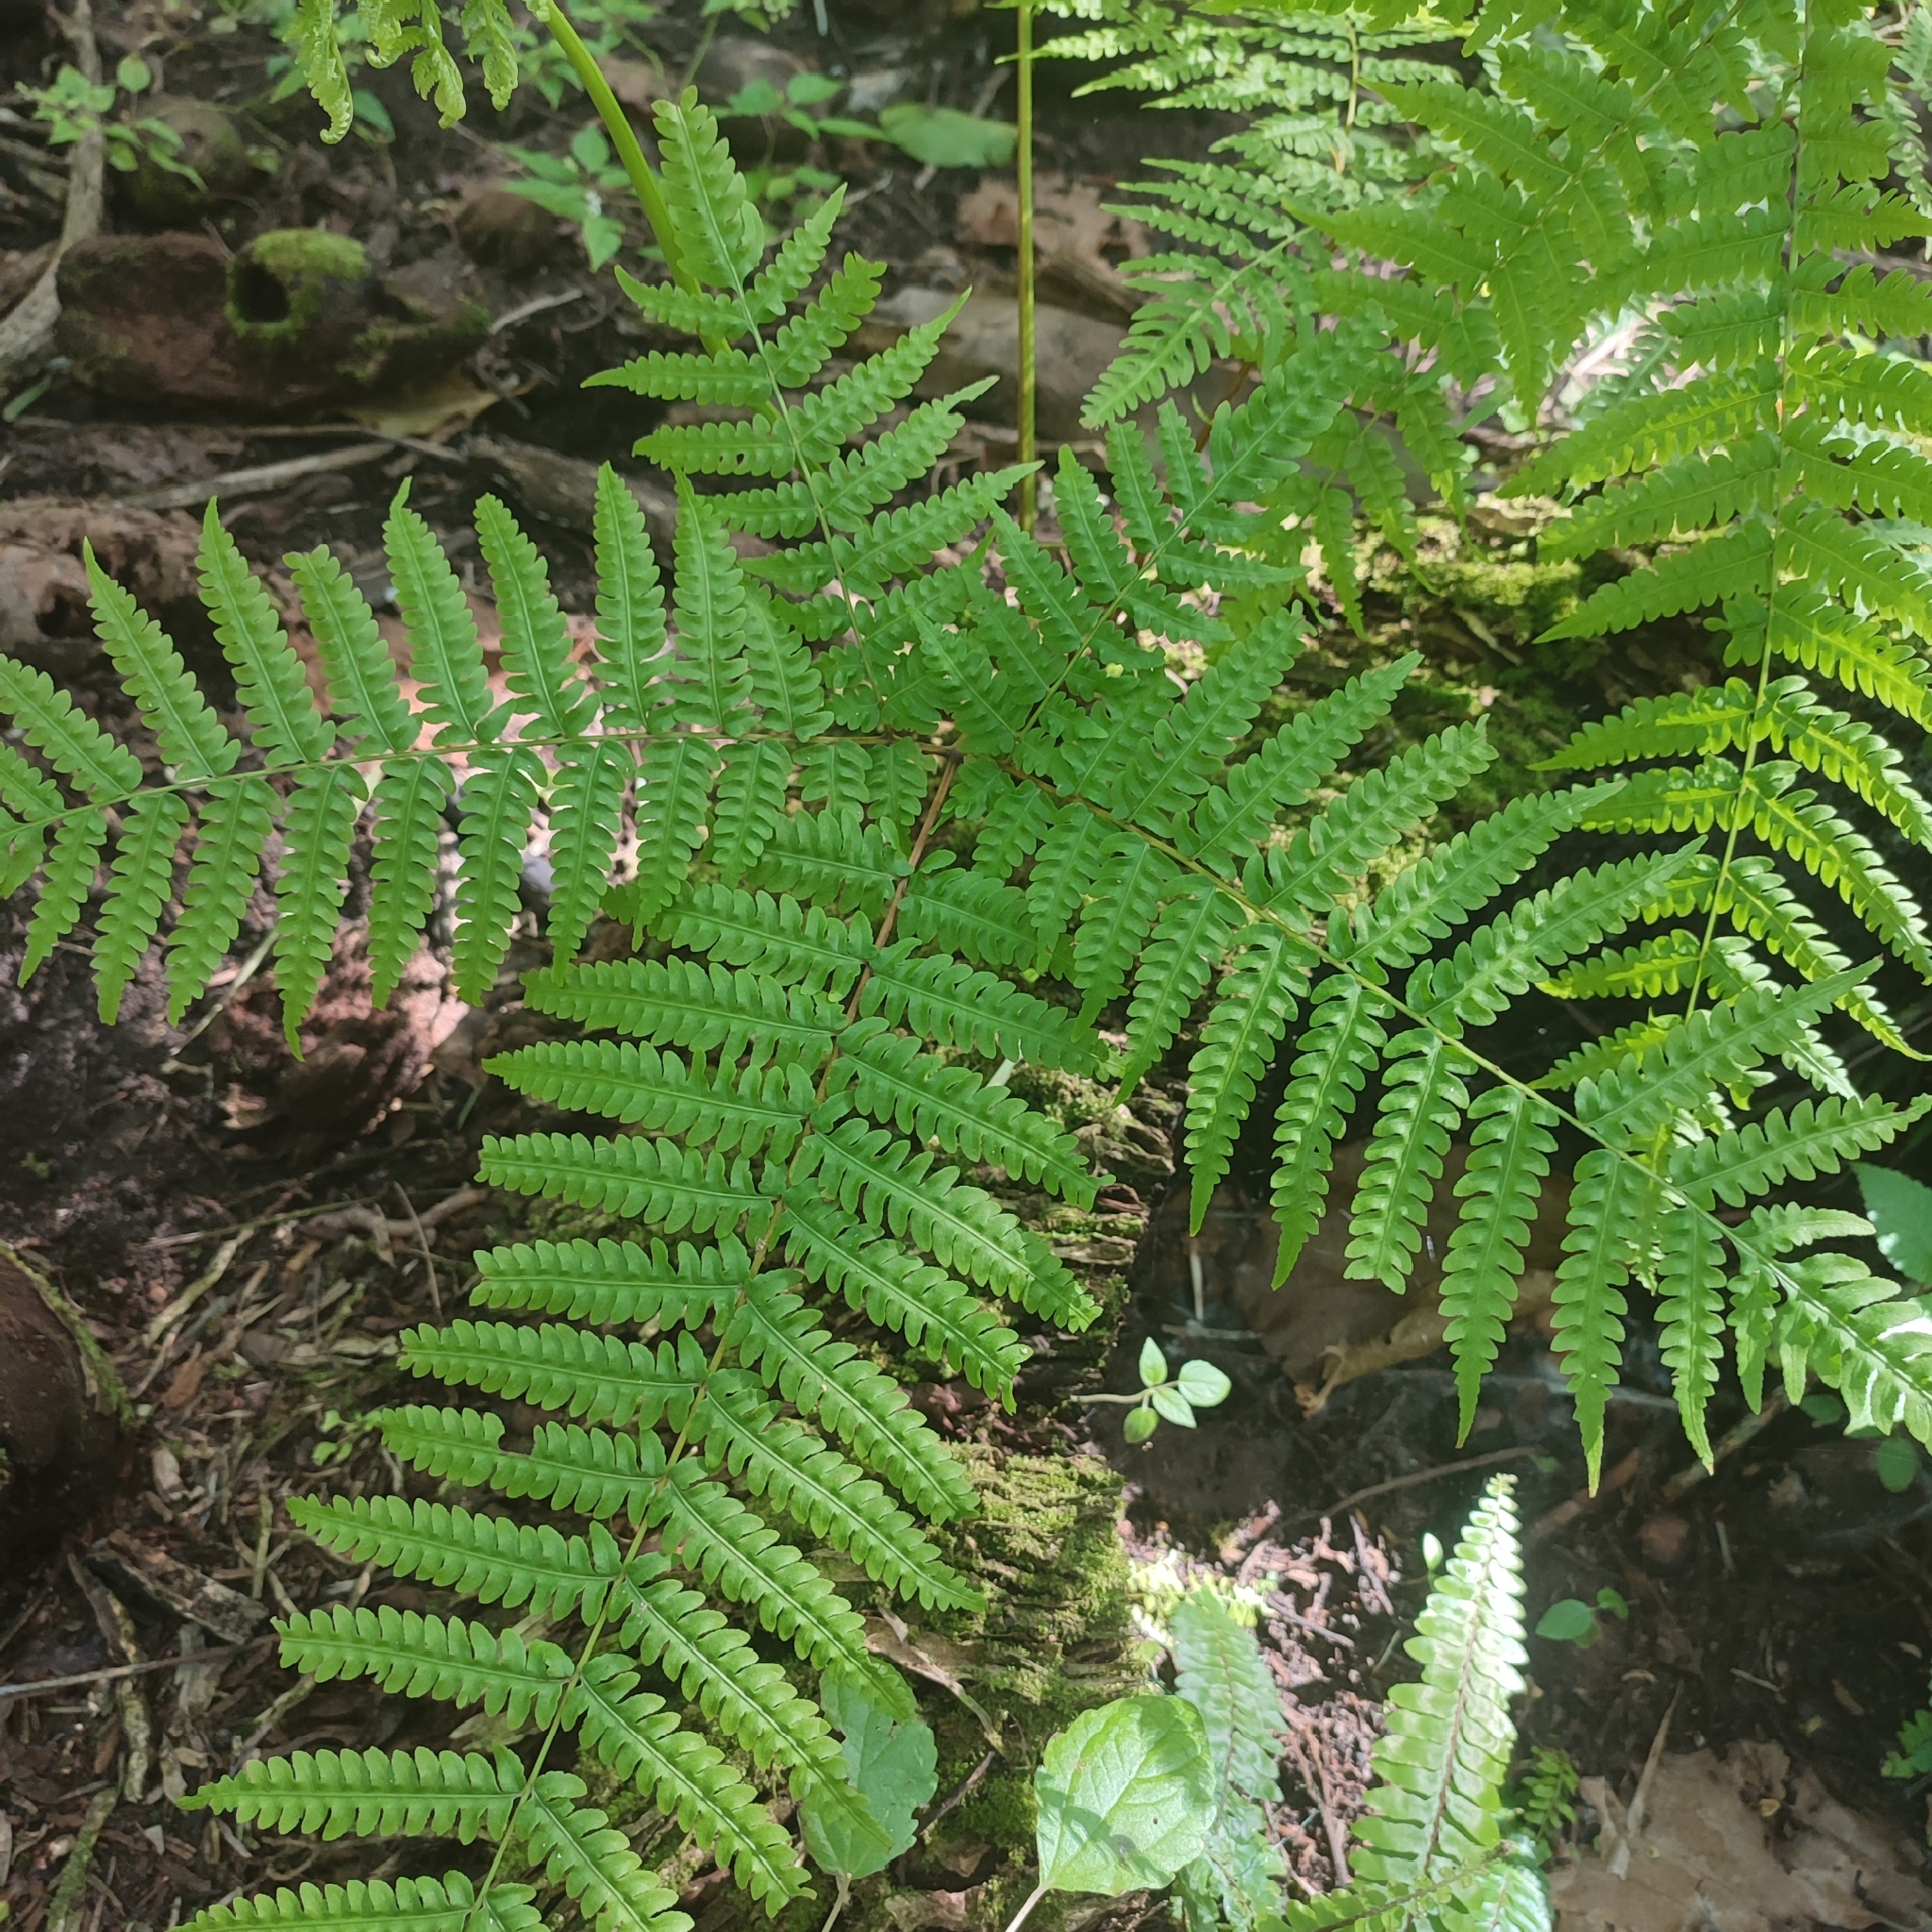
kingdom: Plantae
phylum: Tracheophyta
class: Polypodiopsida
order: Polypodiales
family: Pteridaceae
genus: Pteris
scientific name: Pteris tripartita
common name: Giant brake
